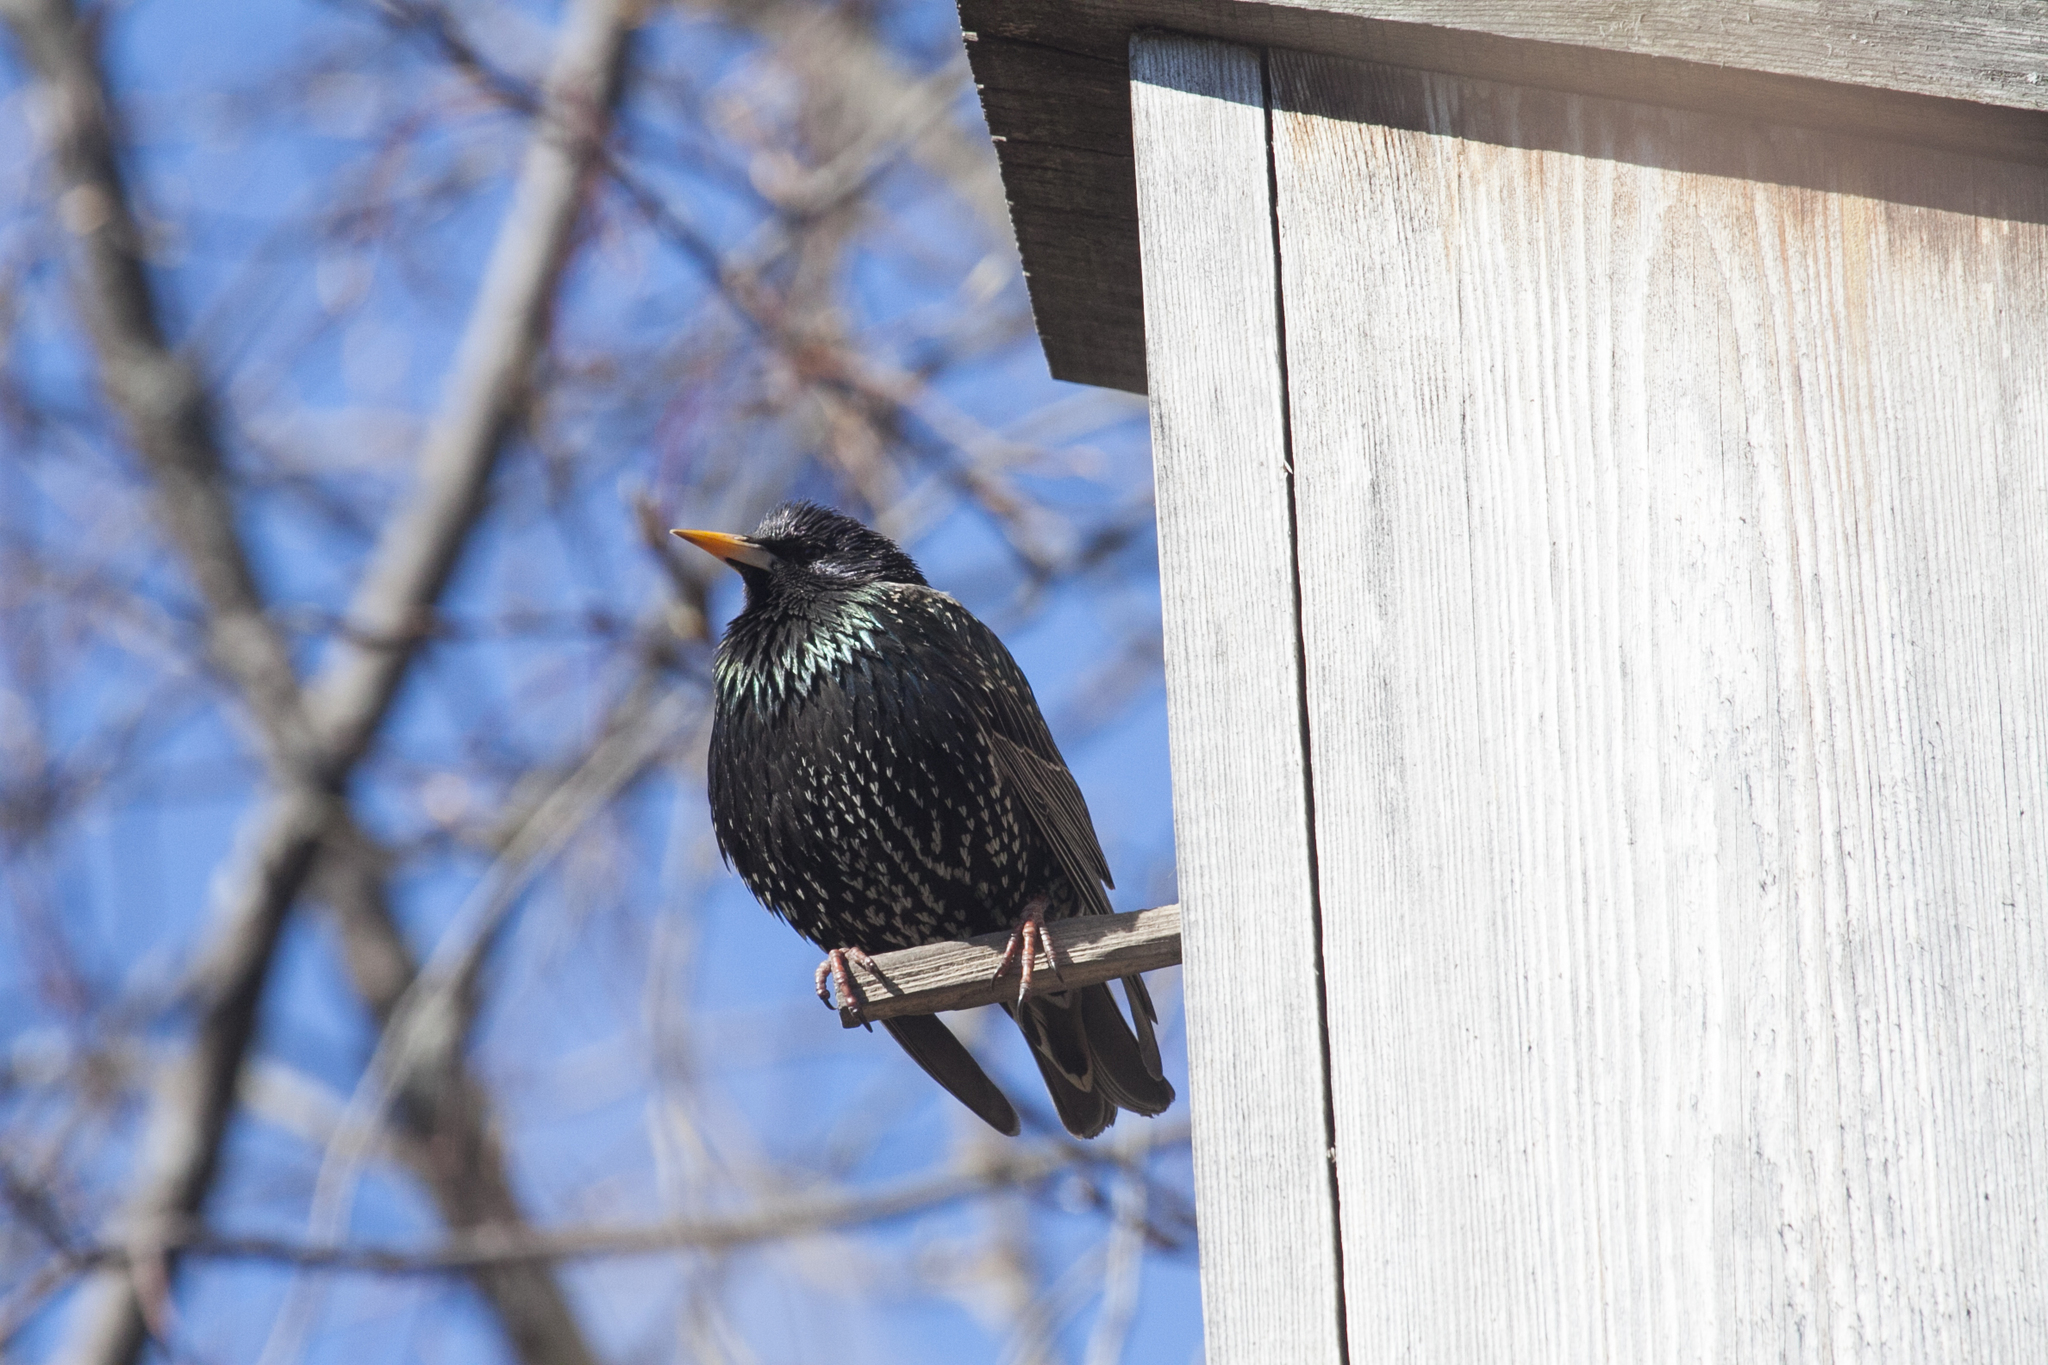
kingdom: Animalia
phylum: Chordata
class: Aves
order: Passeriformes
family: Sturnidae
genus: Sturnus
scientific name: Sturnus vulgaris
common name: Common starling
